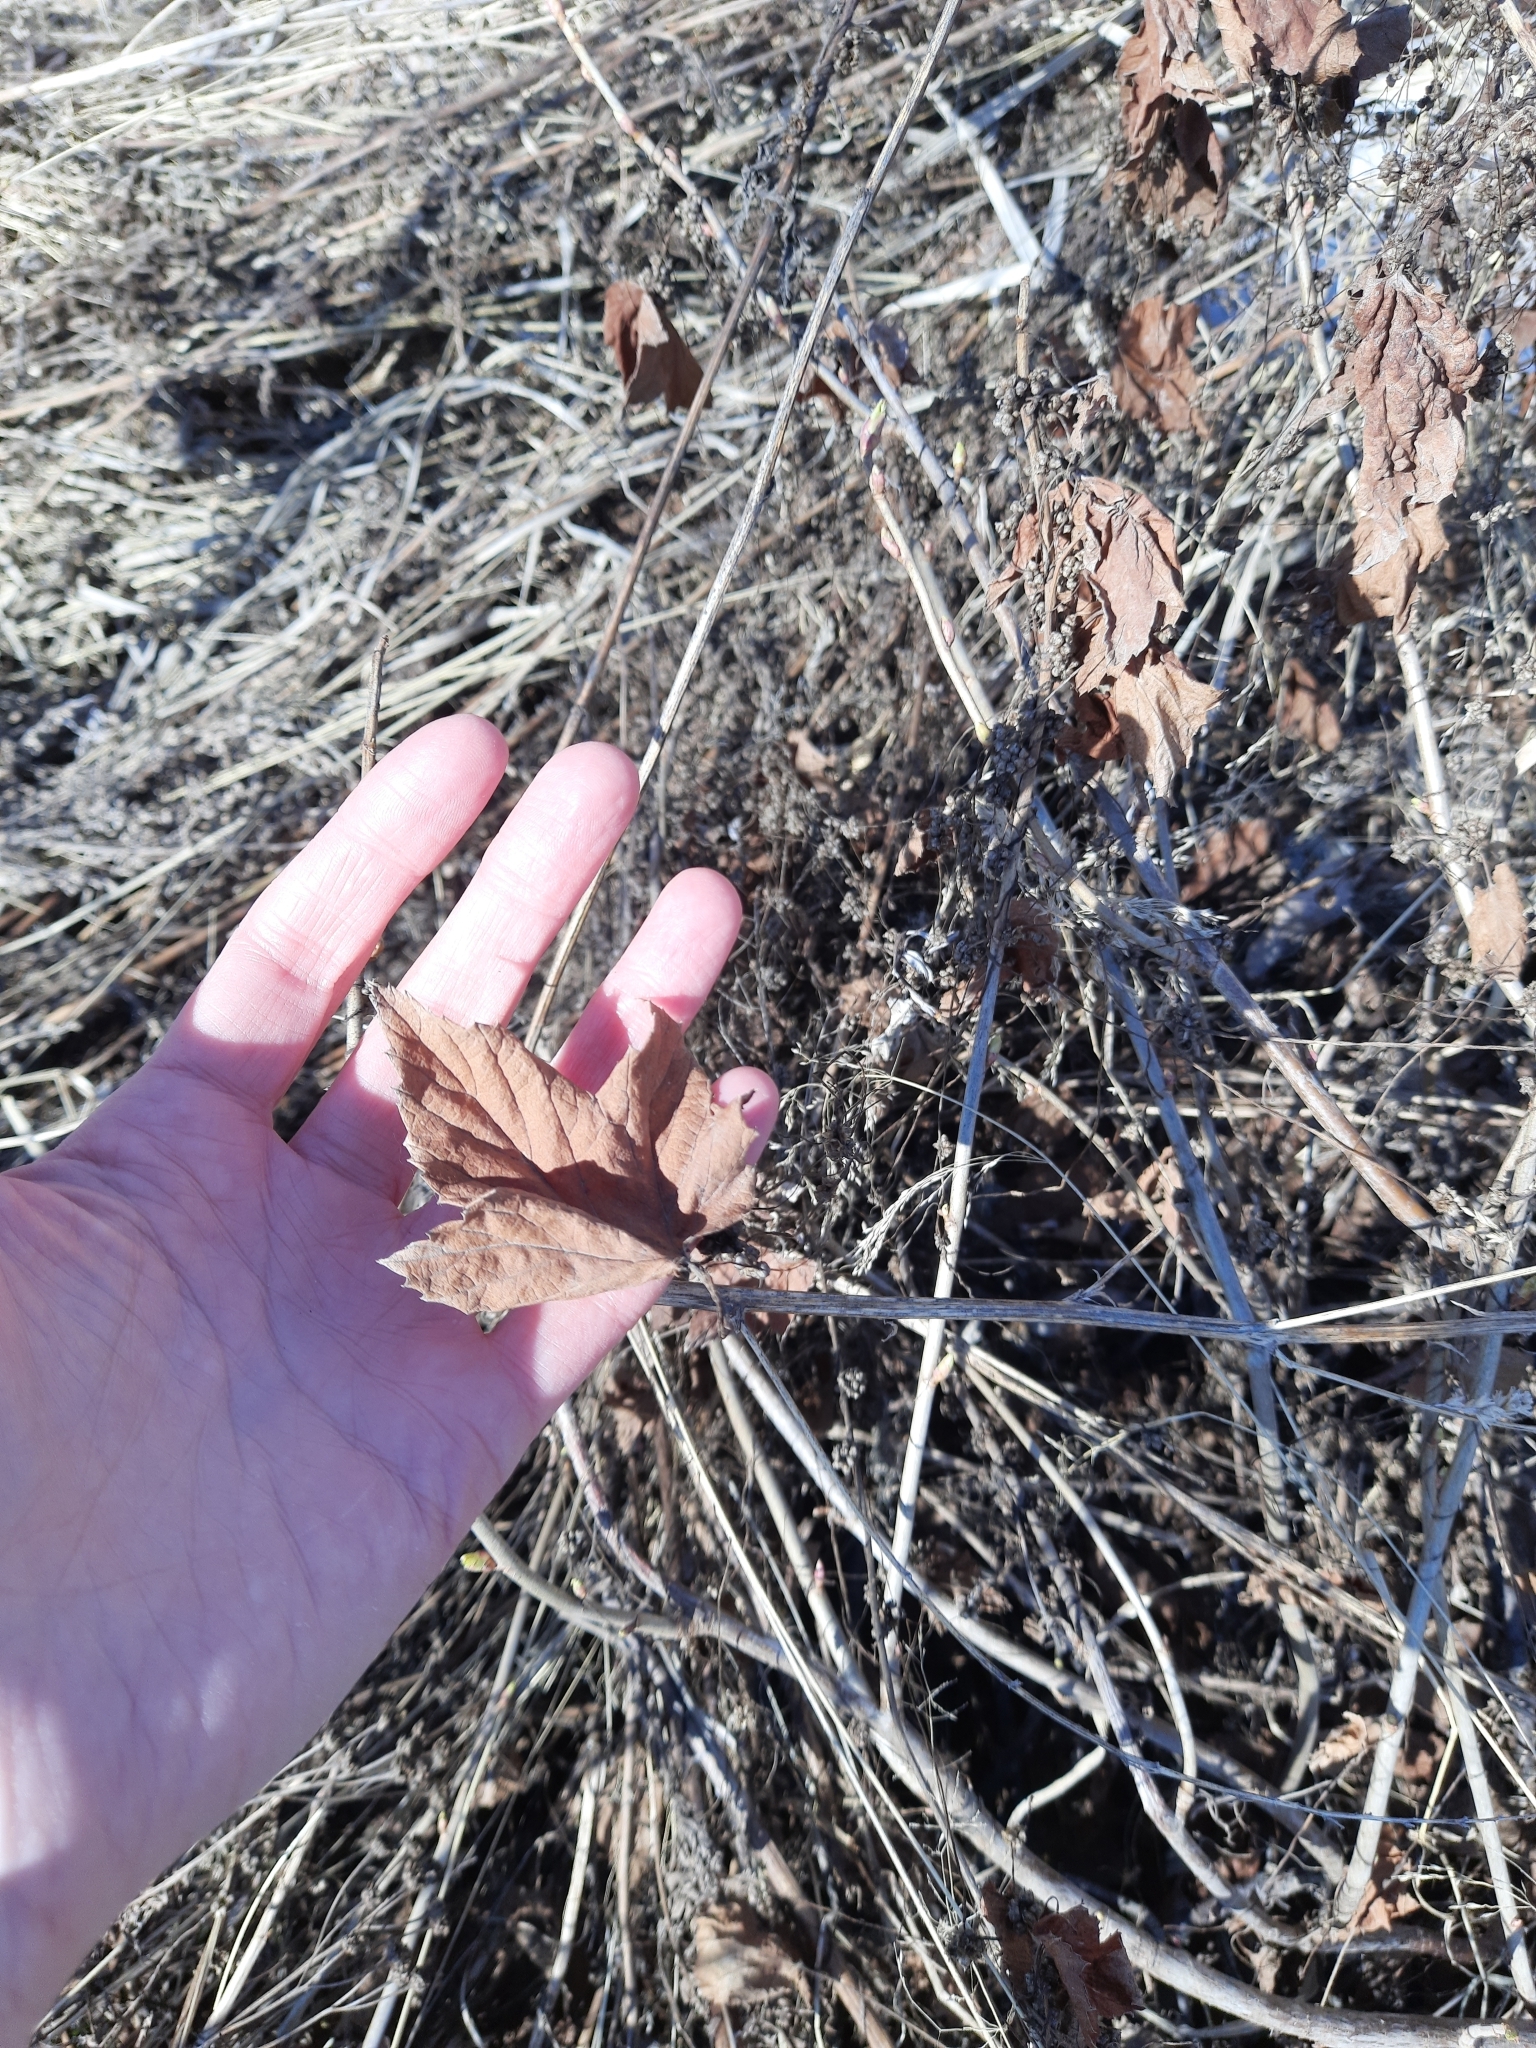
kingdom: Plantae
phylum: Tracheophyta
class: Magnoliopsida
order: Saxifragales
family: Grossulariaceae
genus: Ribes
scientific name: Ribes nigrum
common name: Black currant
